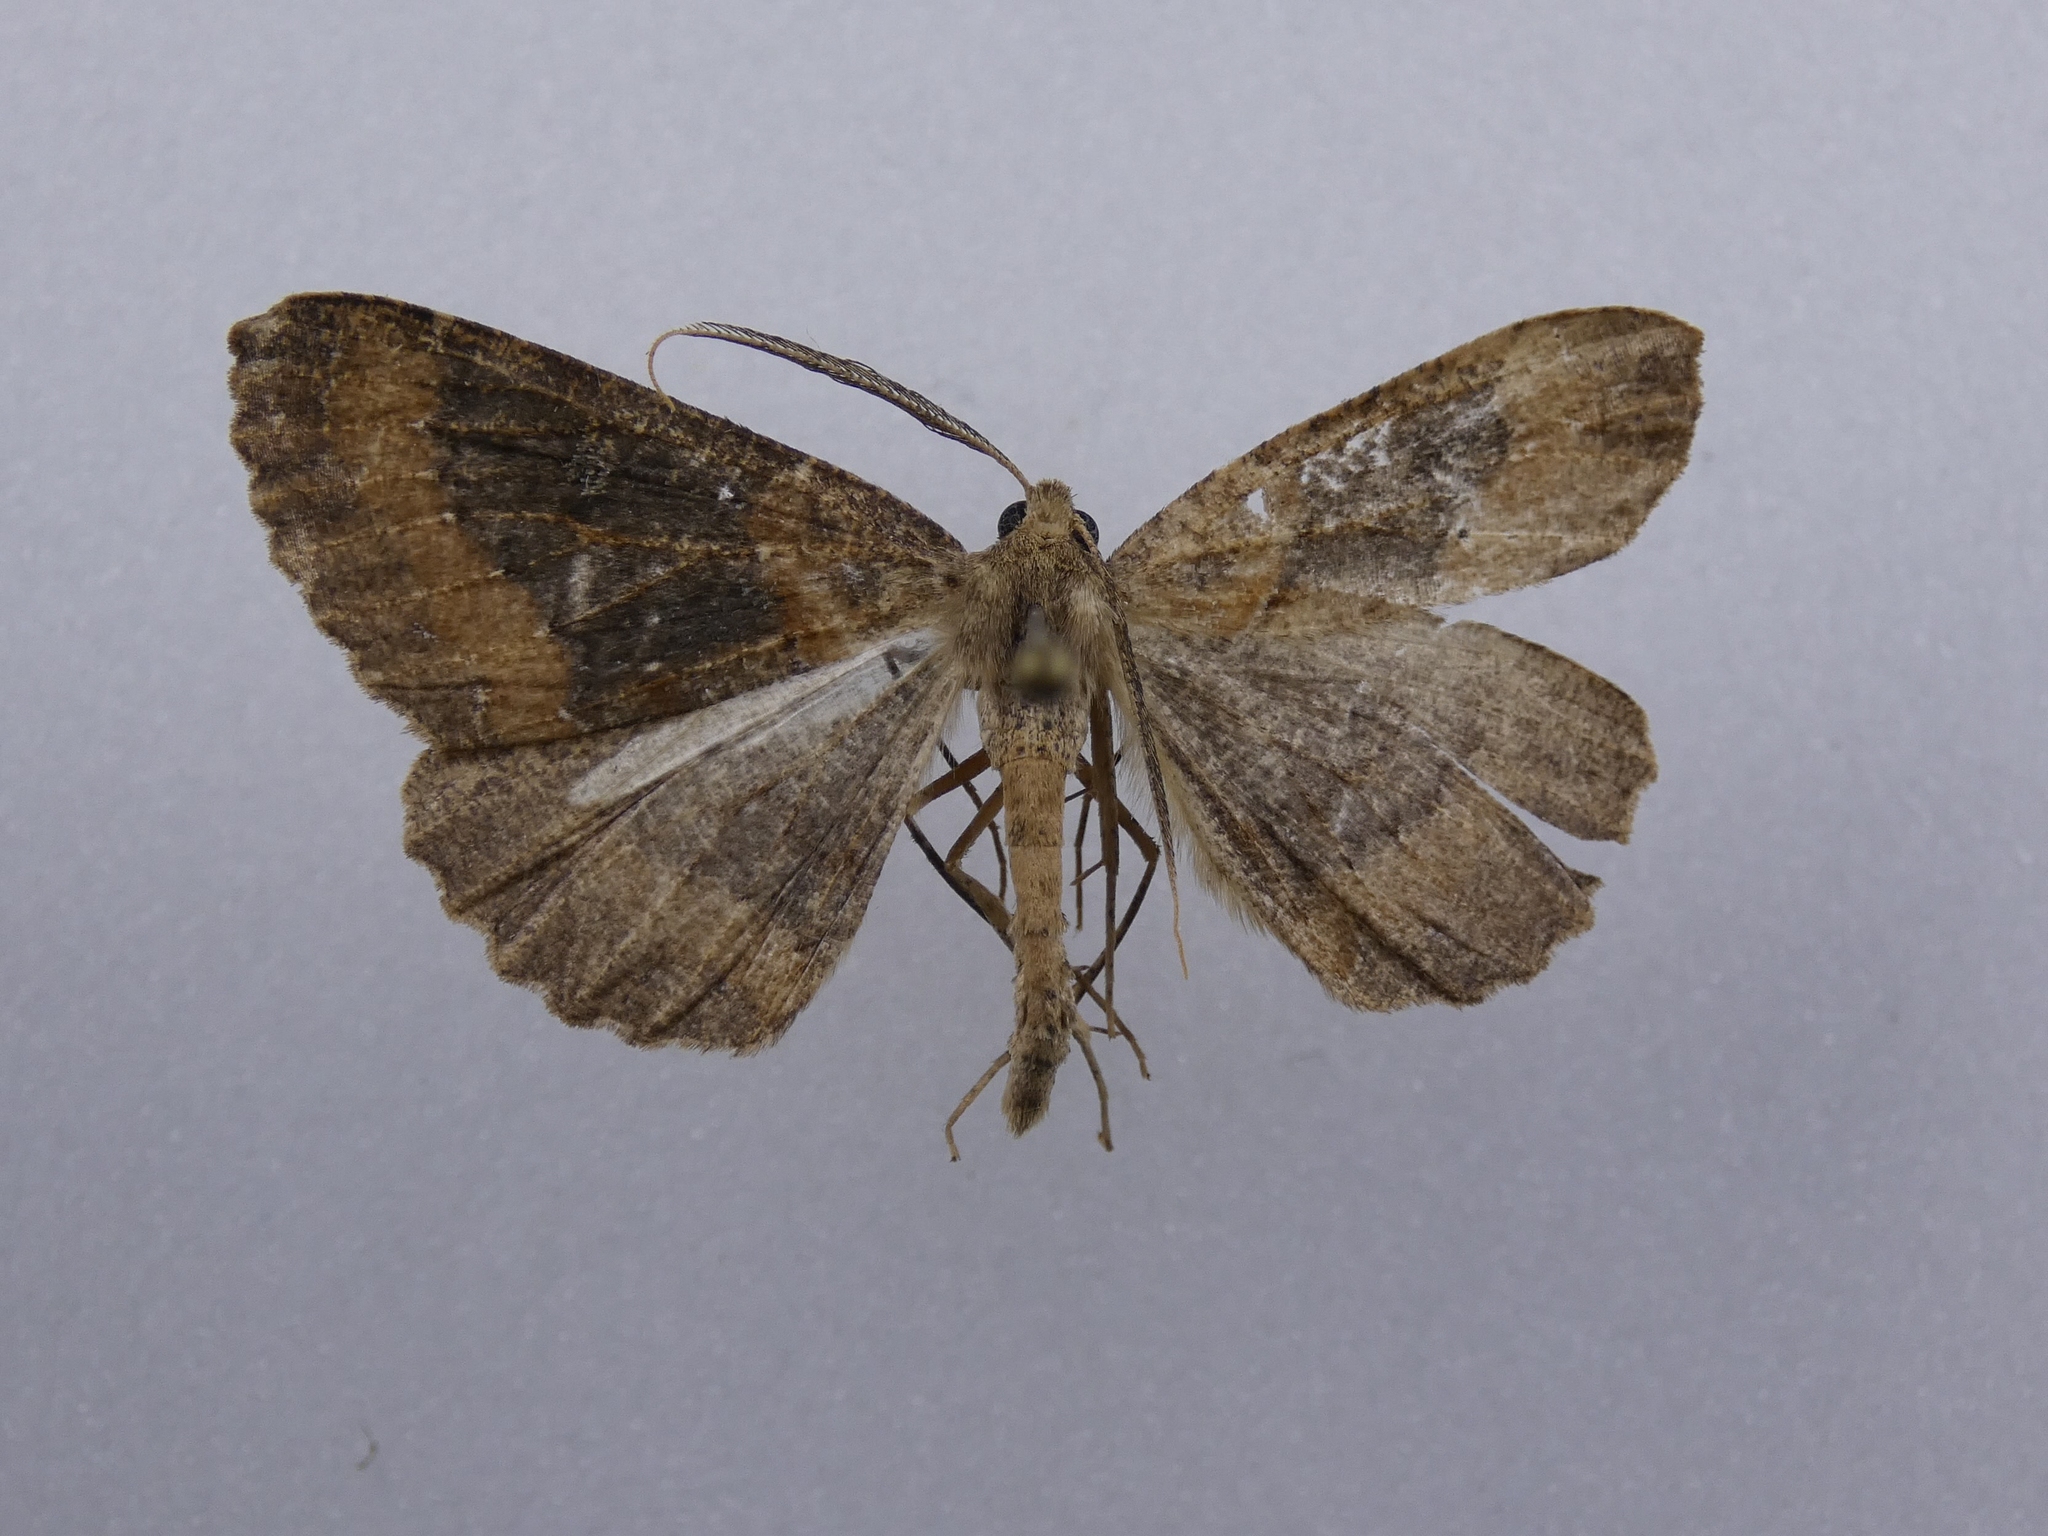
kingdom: Animalia
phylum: Arthropoda
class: Insecta
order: Lepidoptera
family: Geometridae
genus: Cleora
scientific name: Cleora scriptaria
